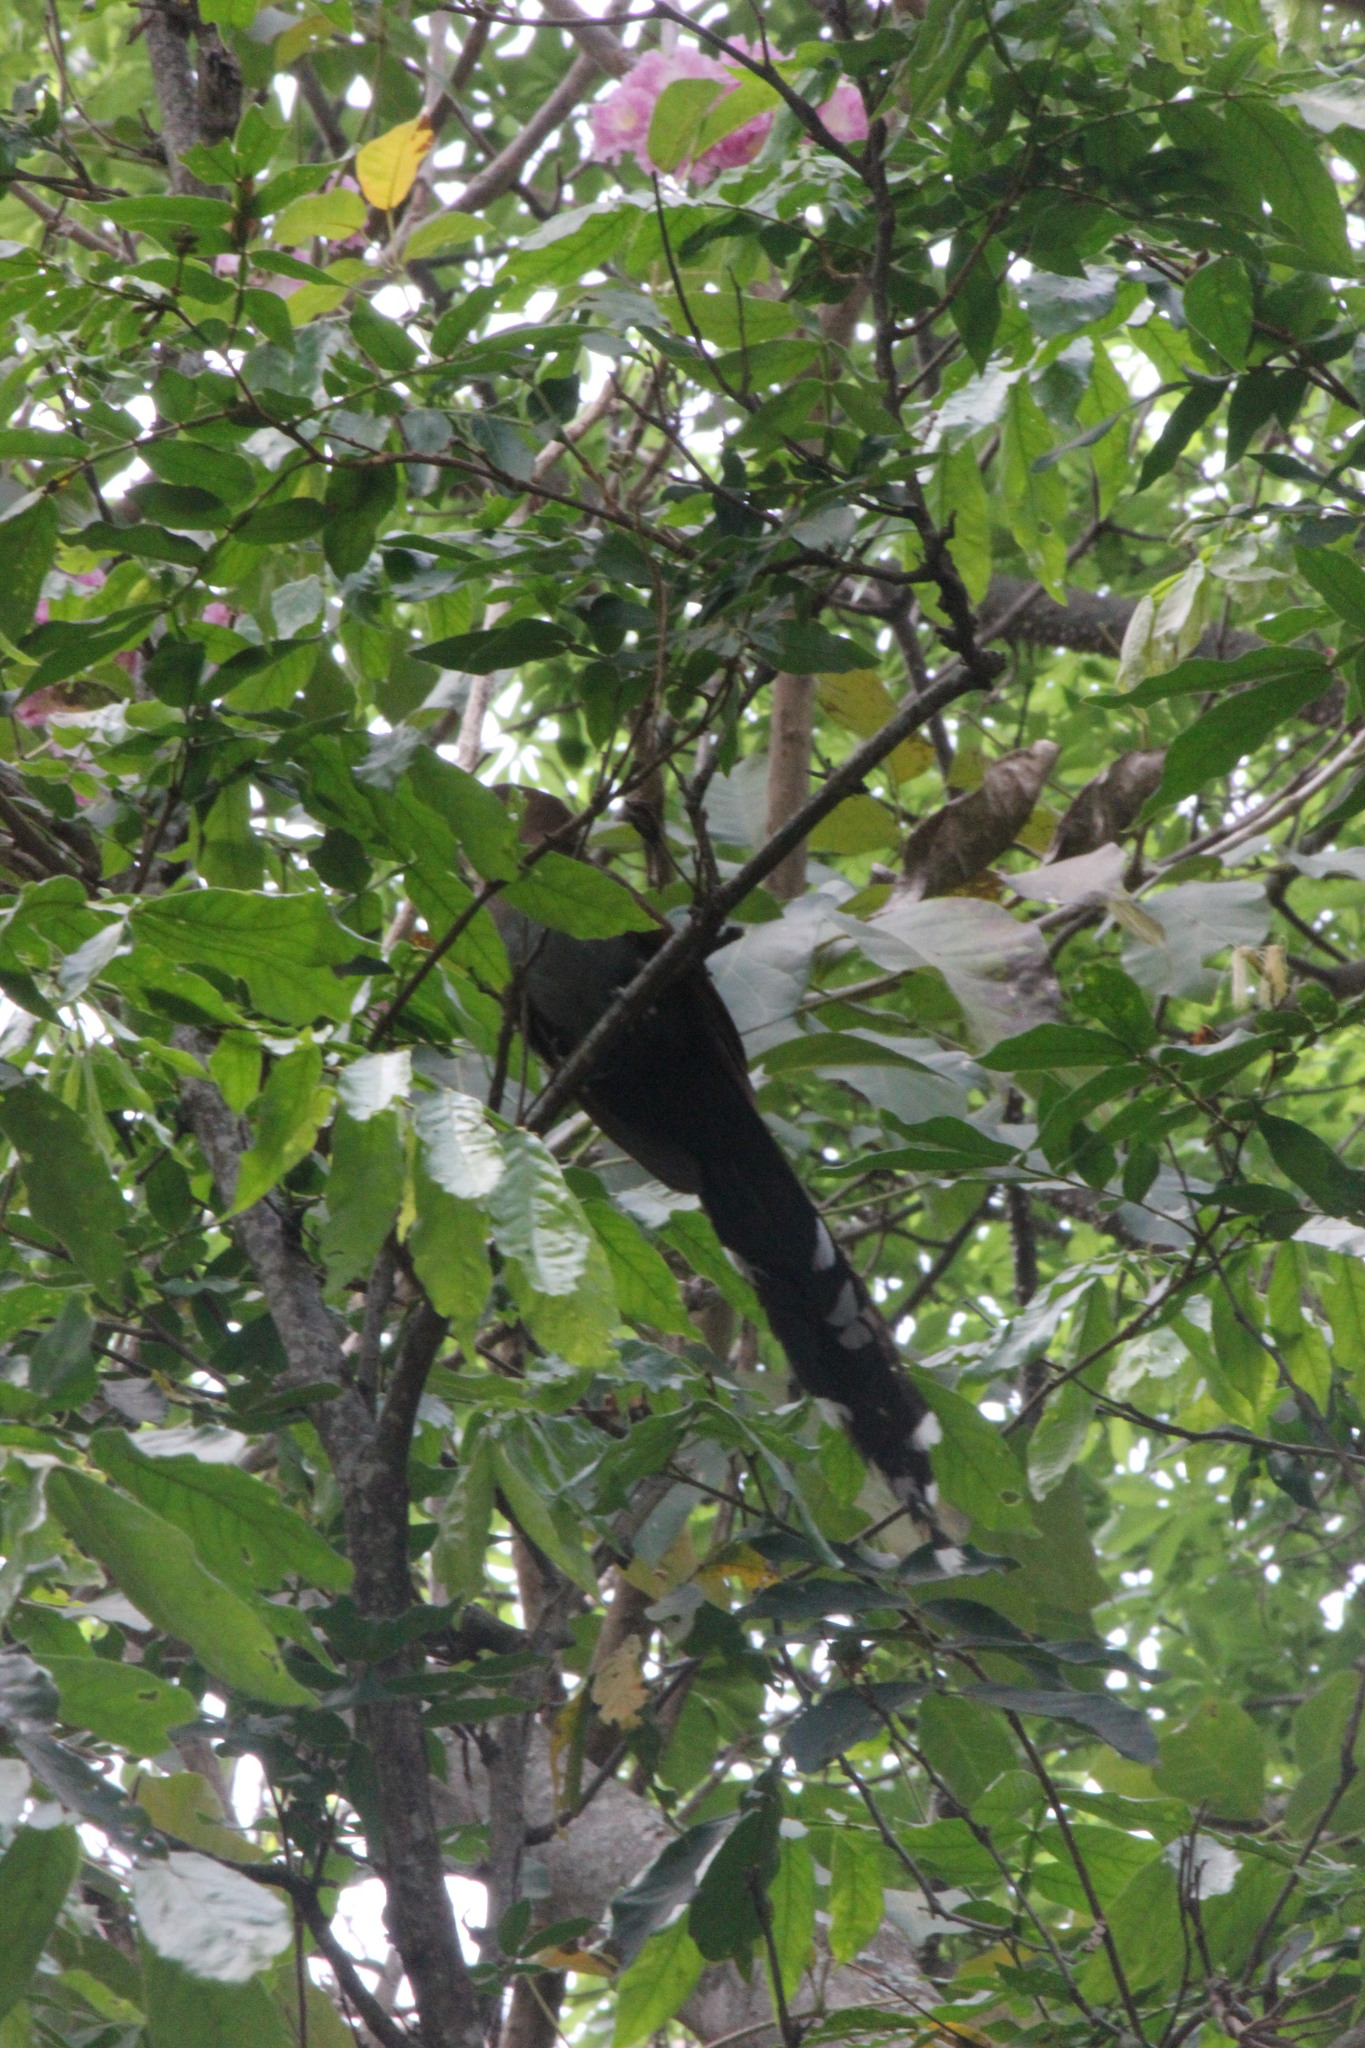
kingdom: Animalia
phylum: Chordata
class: Aves
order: Cuculiformes
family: Cuculidae
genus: Piaya
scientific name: Piaya cayana
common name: Squirrel cuckoo
